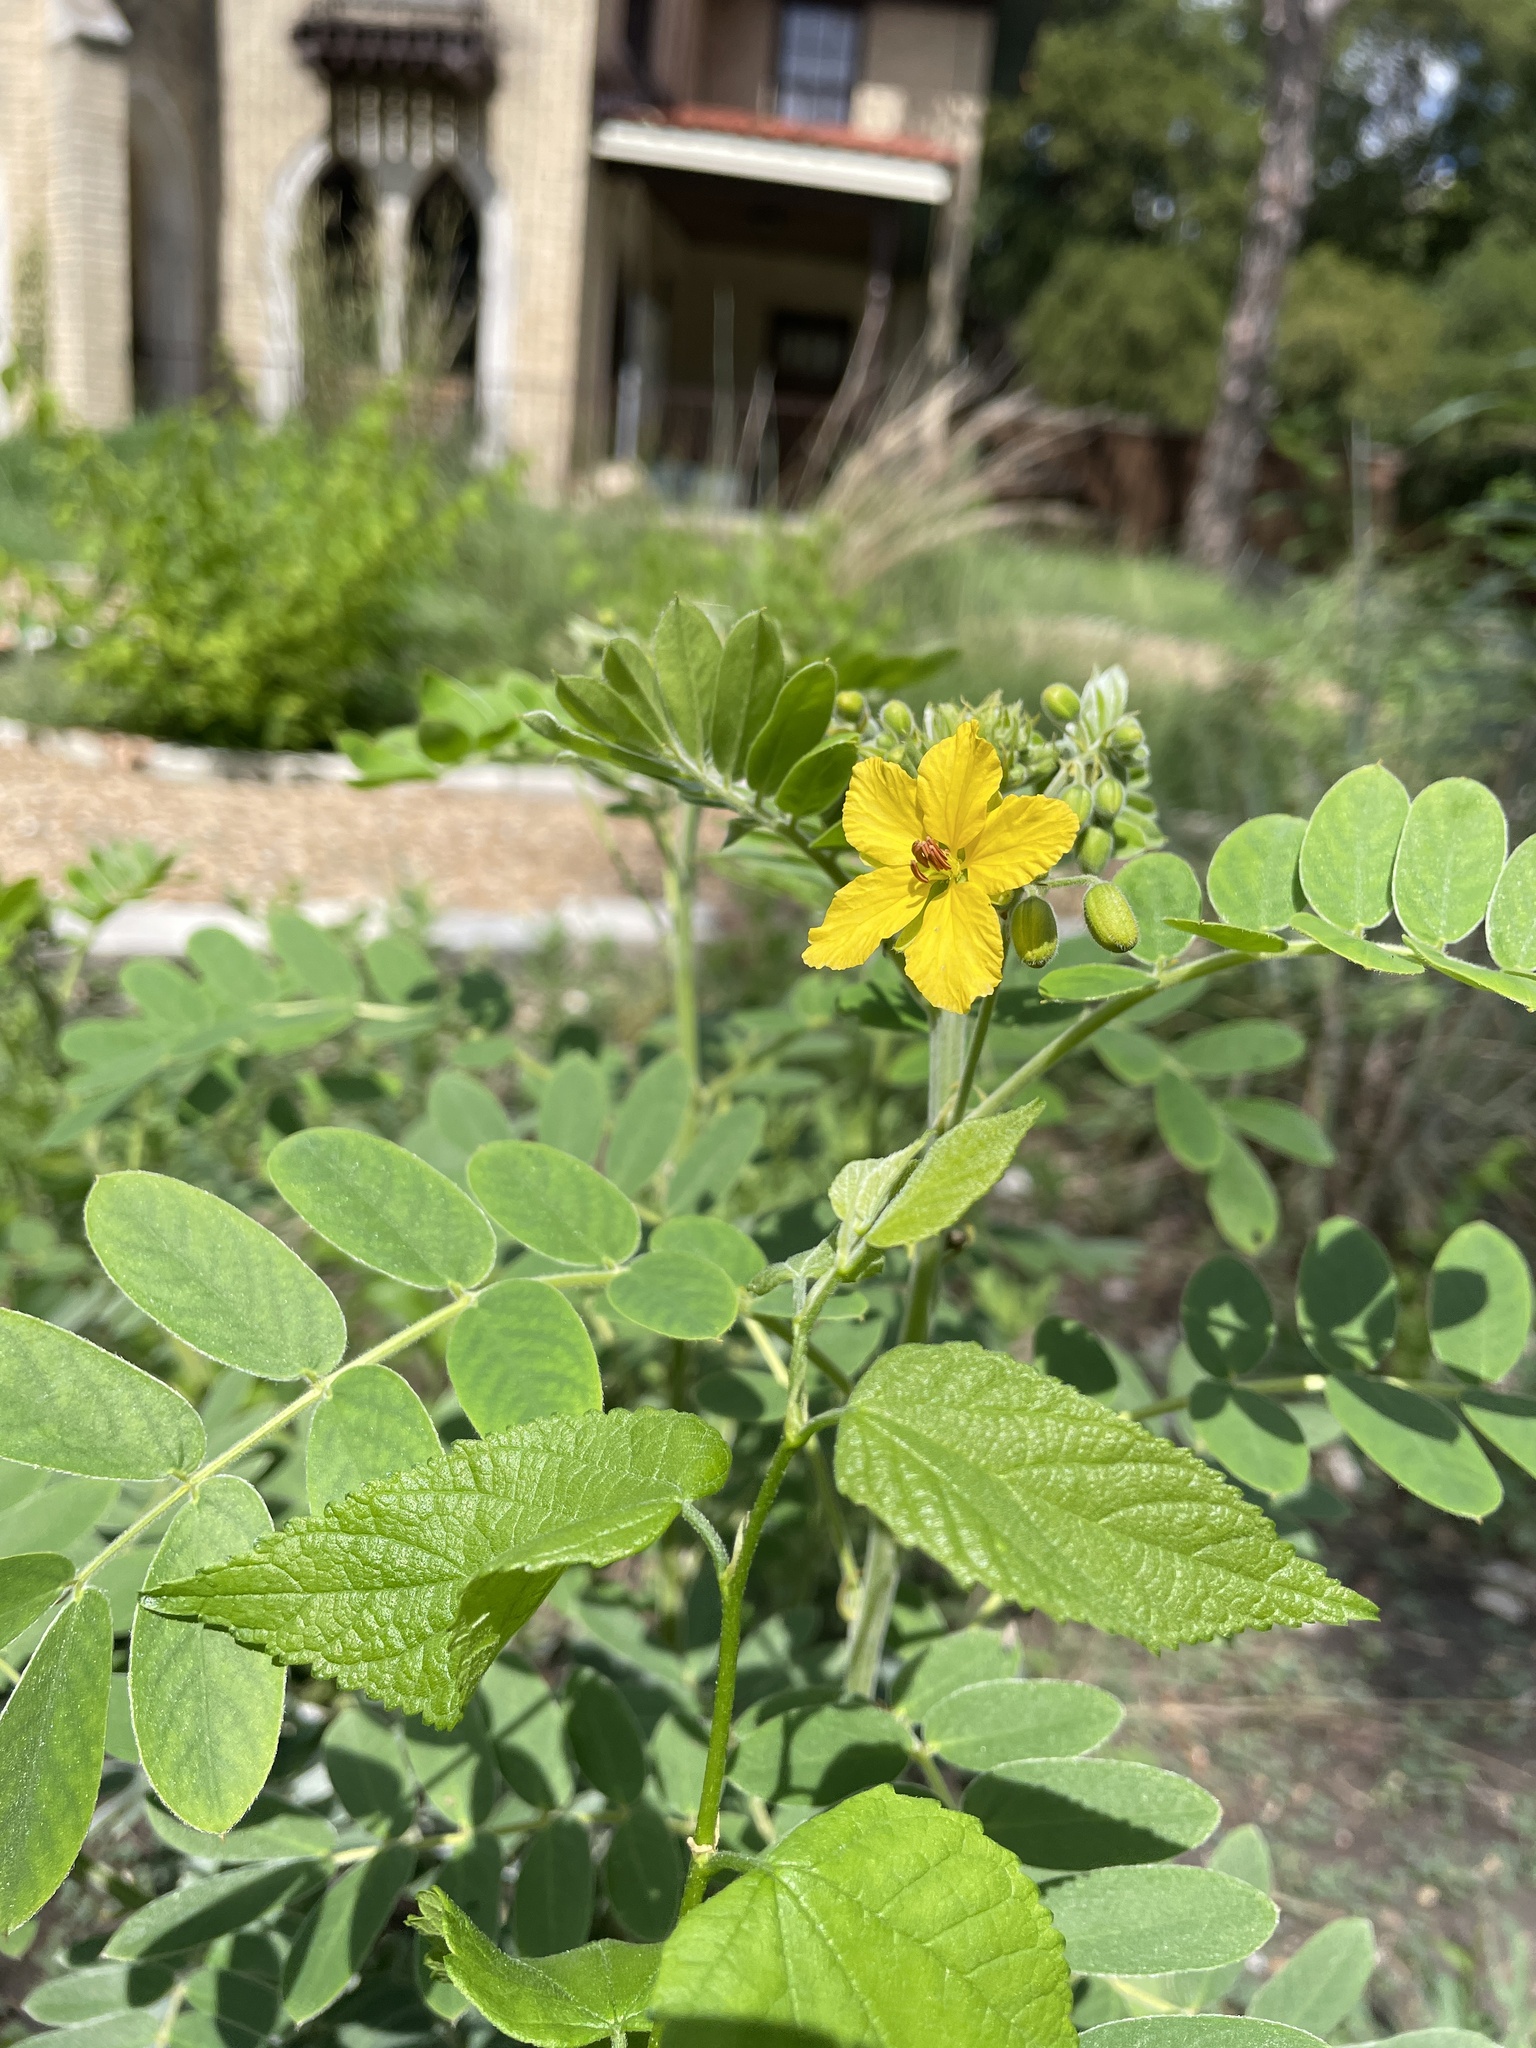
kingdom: Plantae
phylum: Tracheophyta
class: Magnoliopsida
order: Fabales
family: Fabaceae
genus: Senna
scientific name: Senna lindheimeriana
